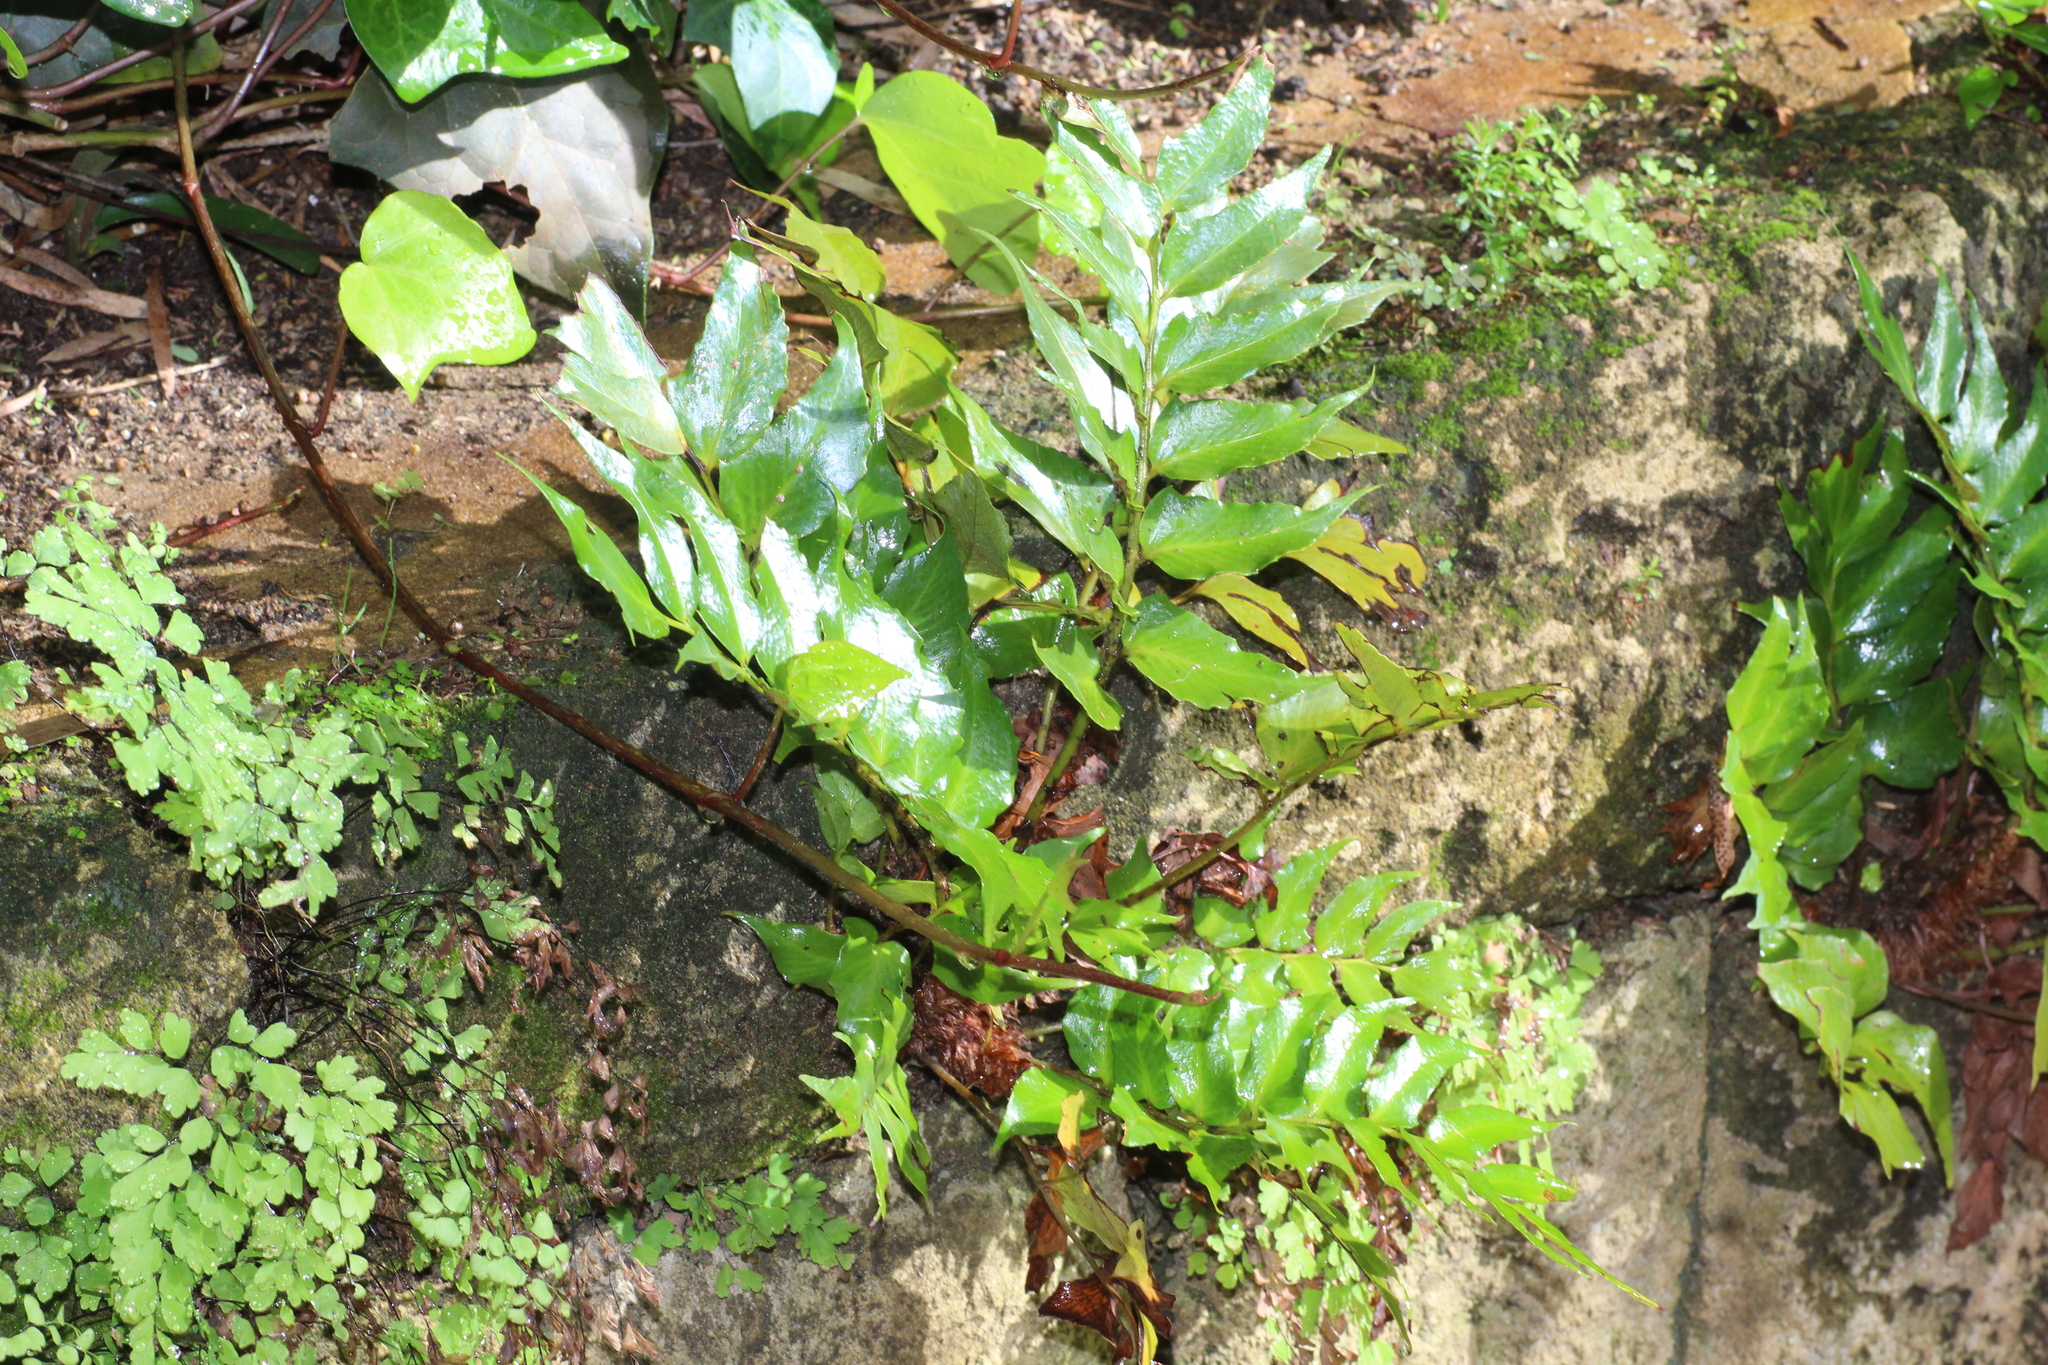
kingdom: Plantae
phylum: Tracheophyta
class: Polypodiopsida
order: Polypodiales
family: Dryopteridaceae
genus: Cyrtomium
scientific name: Cyrtomium falcatum
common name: House holly-fern
